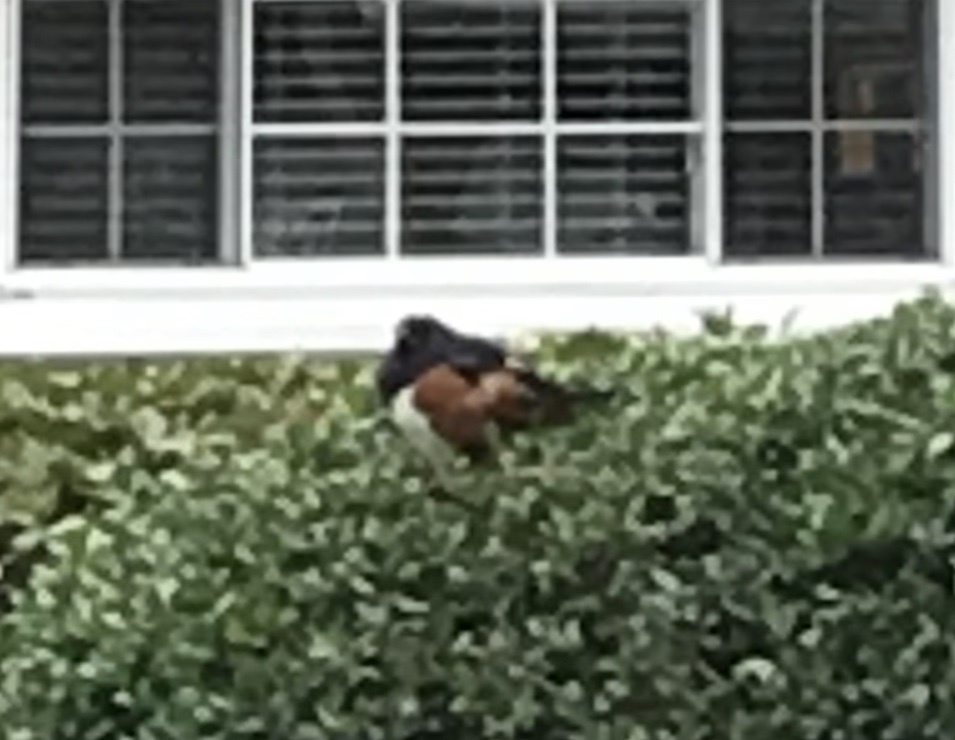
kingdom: Animalia
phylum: Chordata
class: Aves
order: Passeriformes
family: Passerellidae
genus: Pipilo
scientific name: Pipilo erythrophthalmus
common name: Eastern towhee
